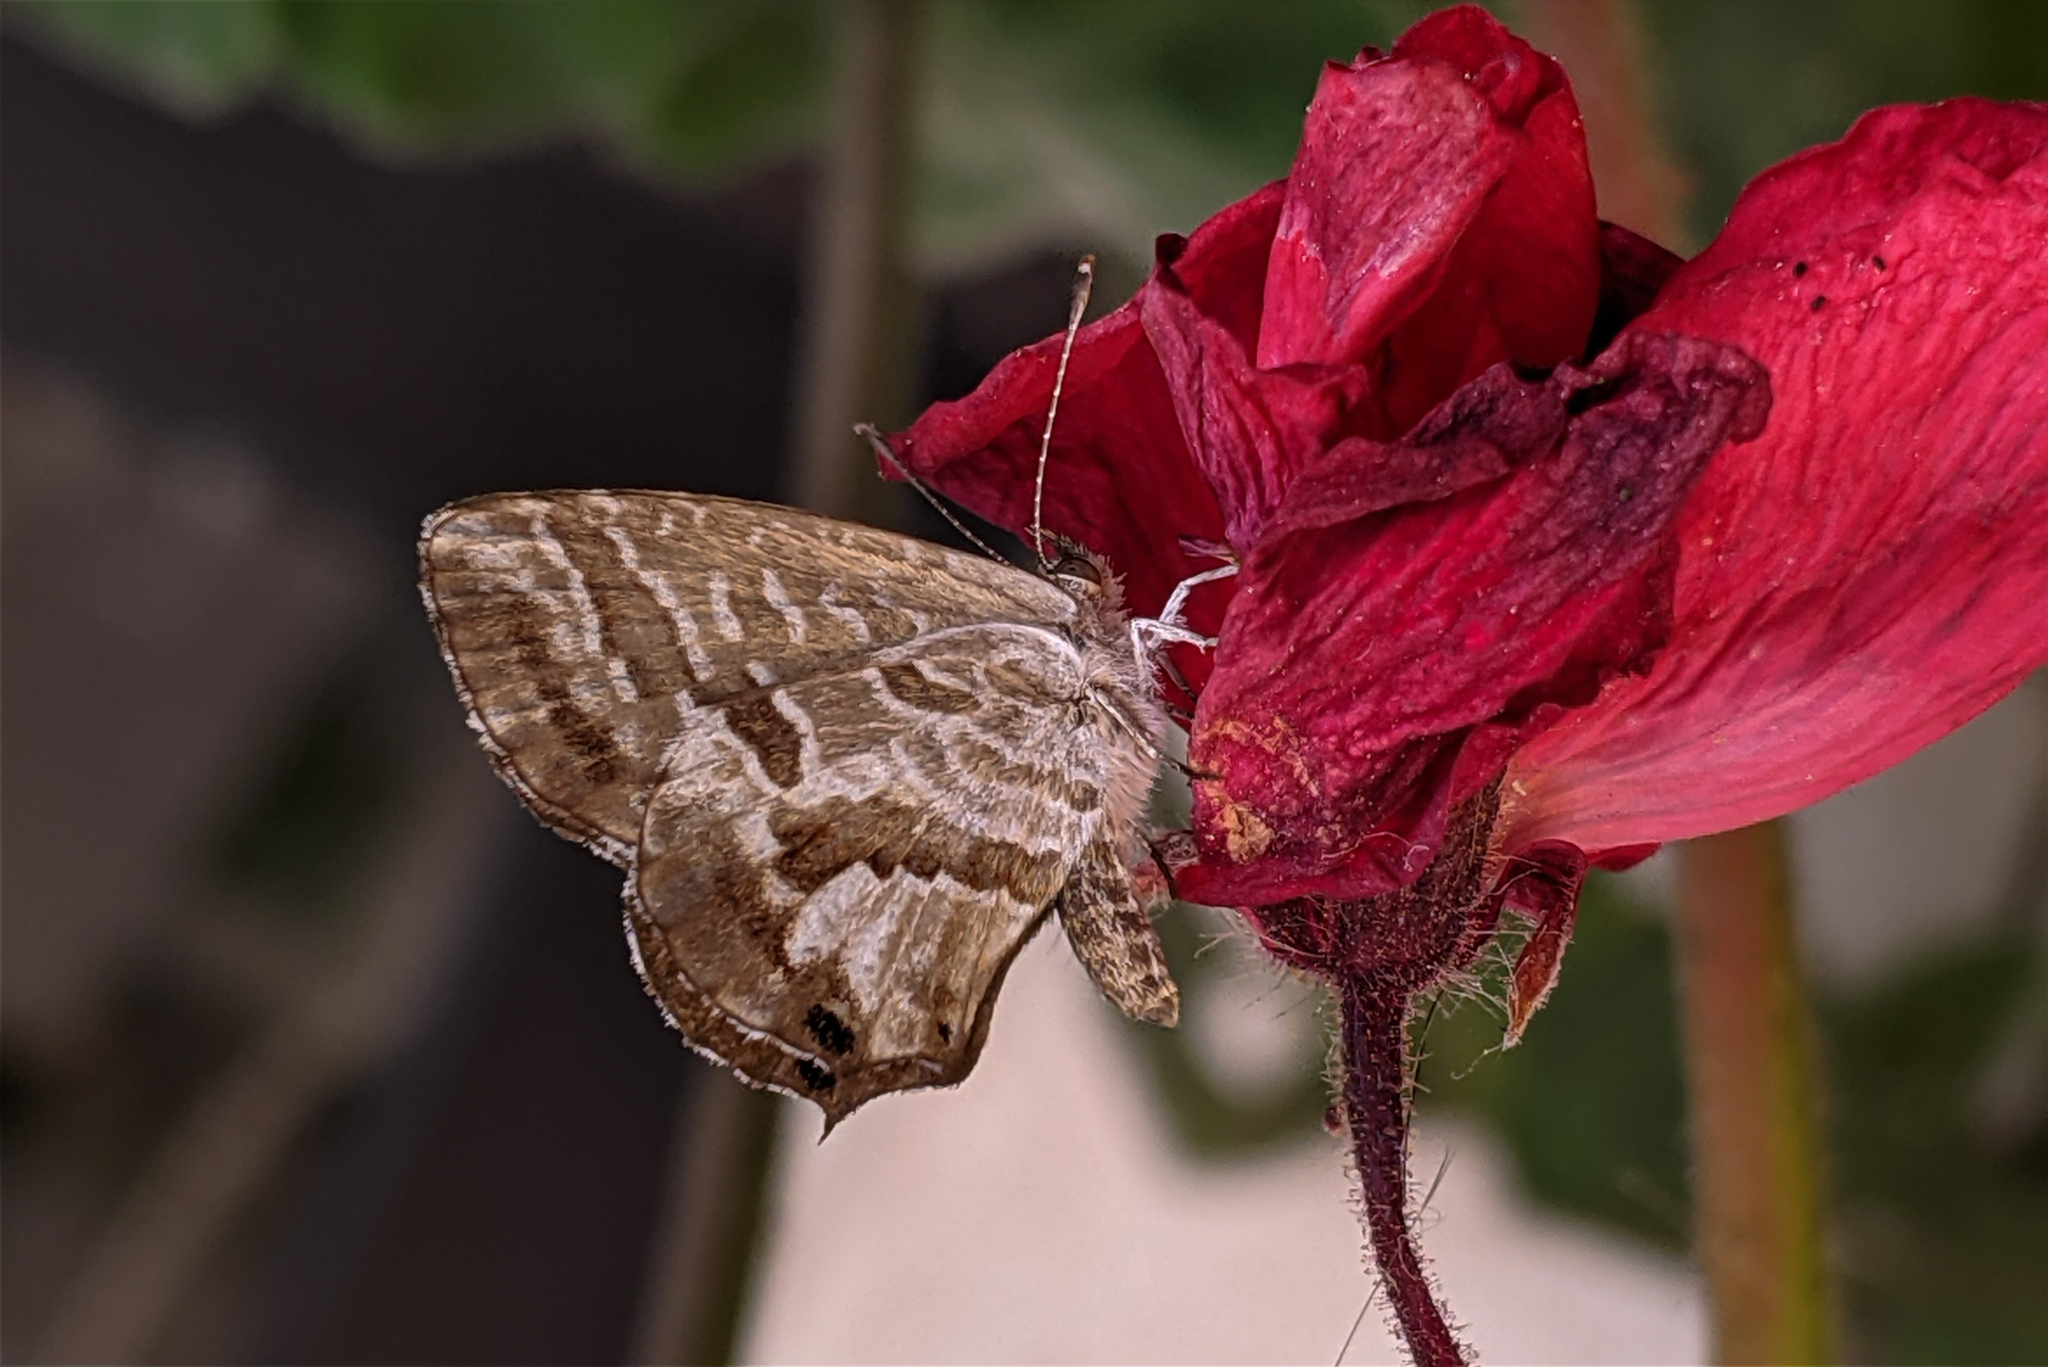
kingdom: Animalia
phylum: Arthropoda
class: Insecta
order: Lepidoptera
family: Lycaenidae
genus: Cacyreus
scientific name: Cacyreus marshalli
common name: Geranium bronze
